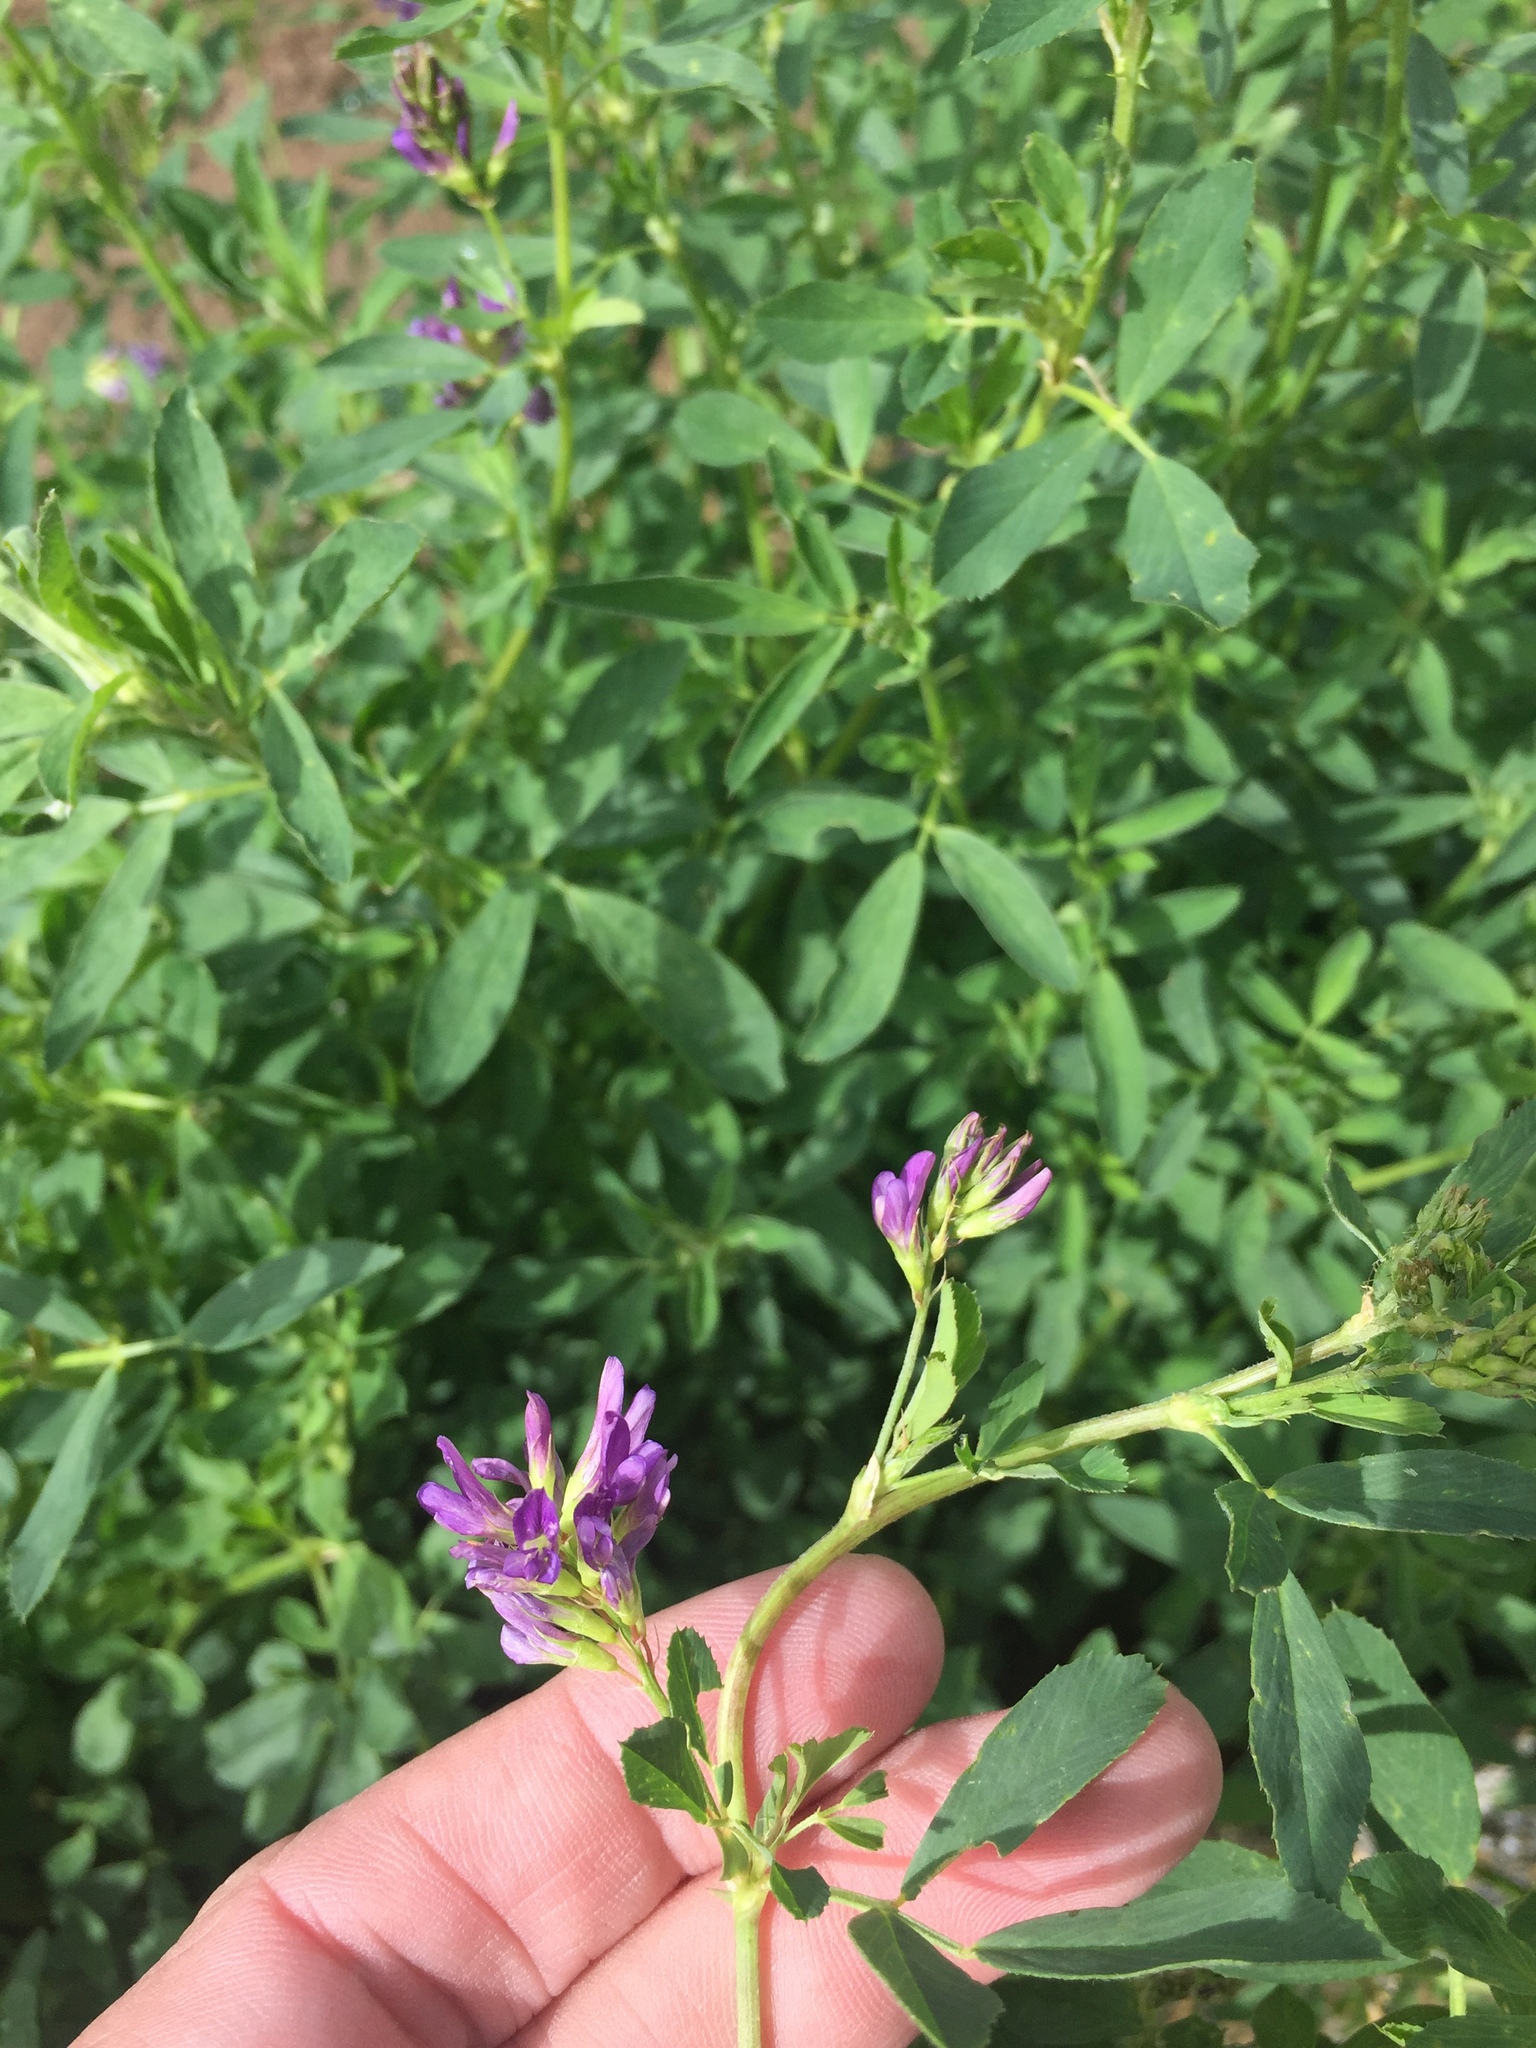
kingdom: Plantae
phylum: Tracheophyta
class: Magnoliopsida
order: Fabales
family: Fabaceae
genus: Medicago
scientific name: Medicago sativa
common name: Alfalfa
